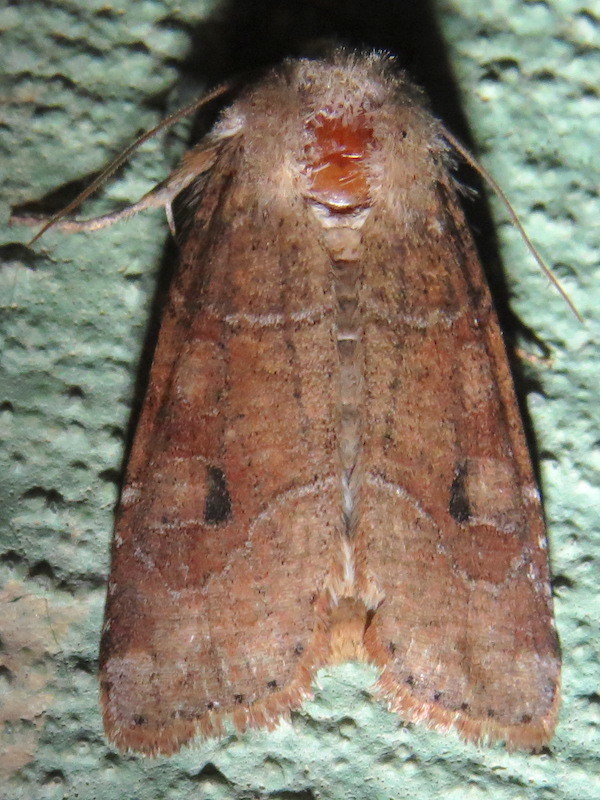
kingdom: Animalia
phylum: Arthropoda
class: Insecta
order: Lepidoptera
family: Noctuidae
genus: Crocigrapha
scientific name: Crocigrapha normani
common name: Norman's quaker
